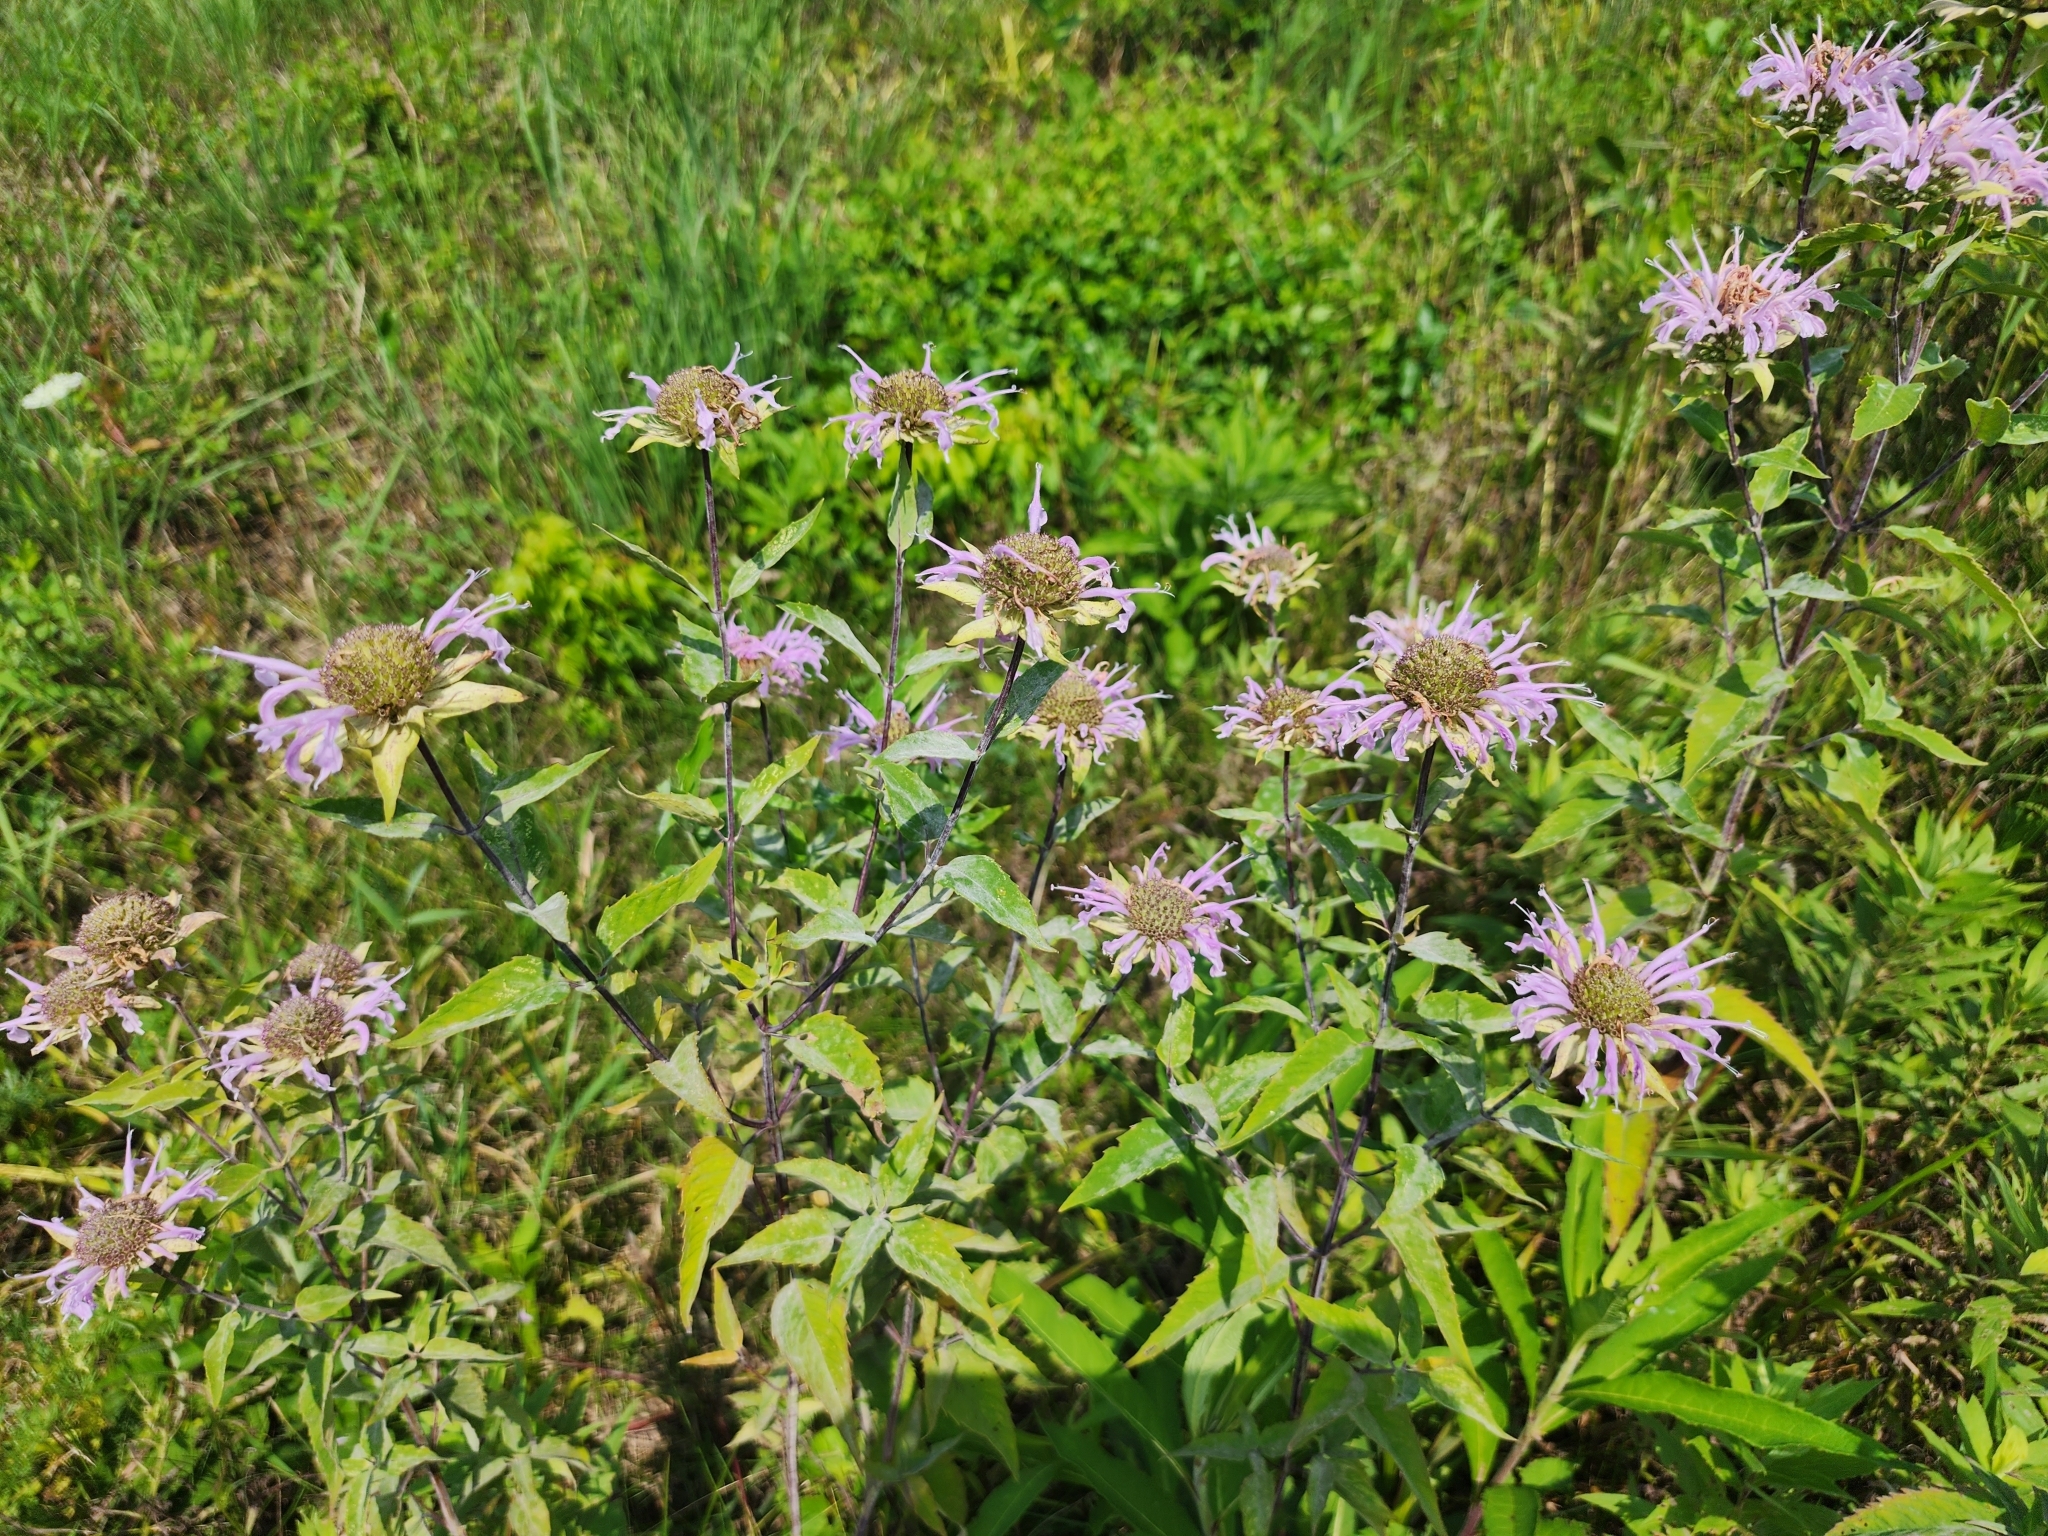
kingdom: Plantae
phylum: Tracheophyta
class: Magnoliopsida
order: Lamiales
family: Lamiaceae
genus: Monarda
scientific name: Monarda fistulosa
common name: Purple beebalm
